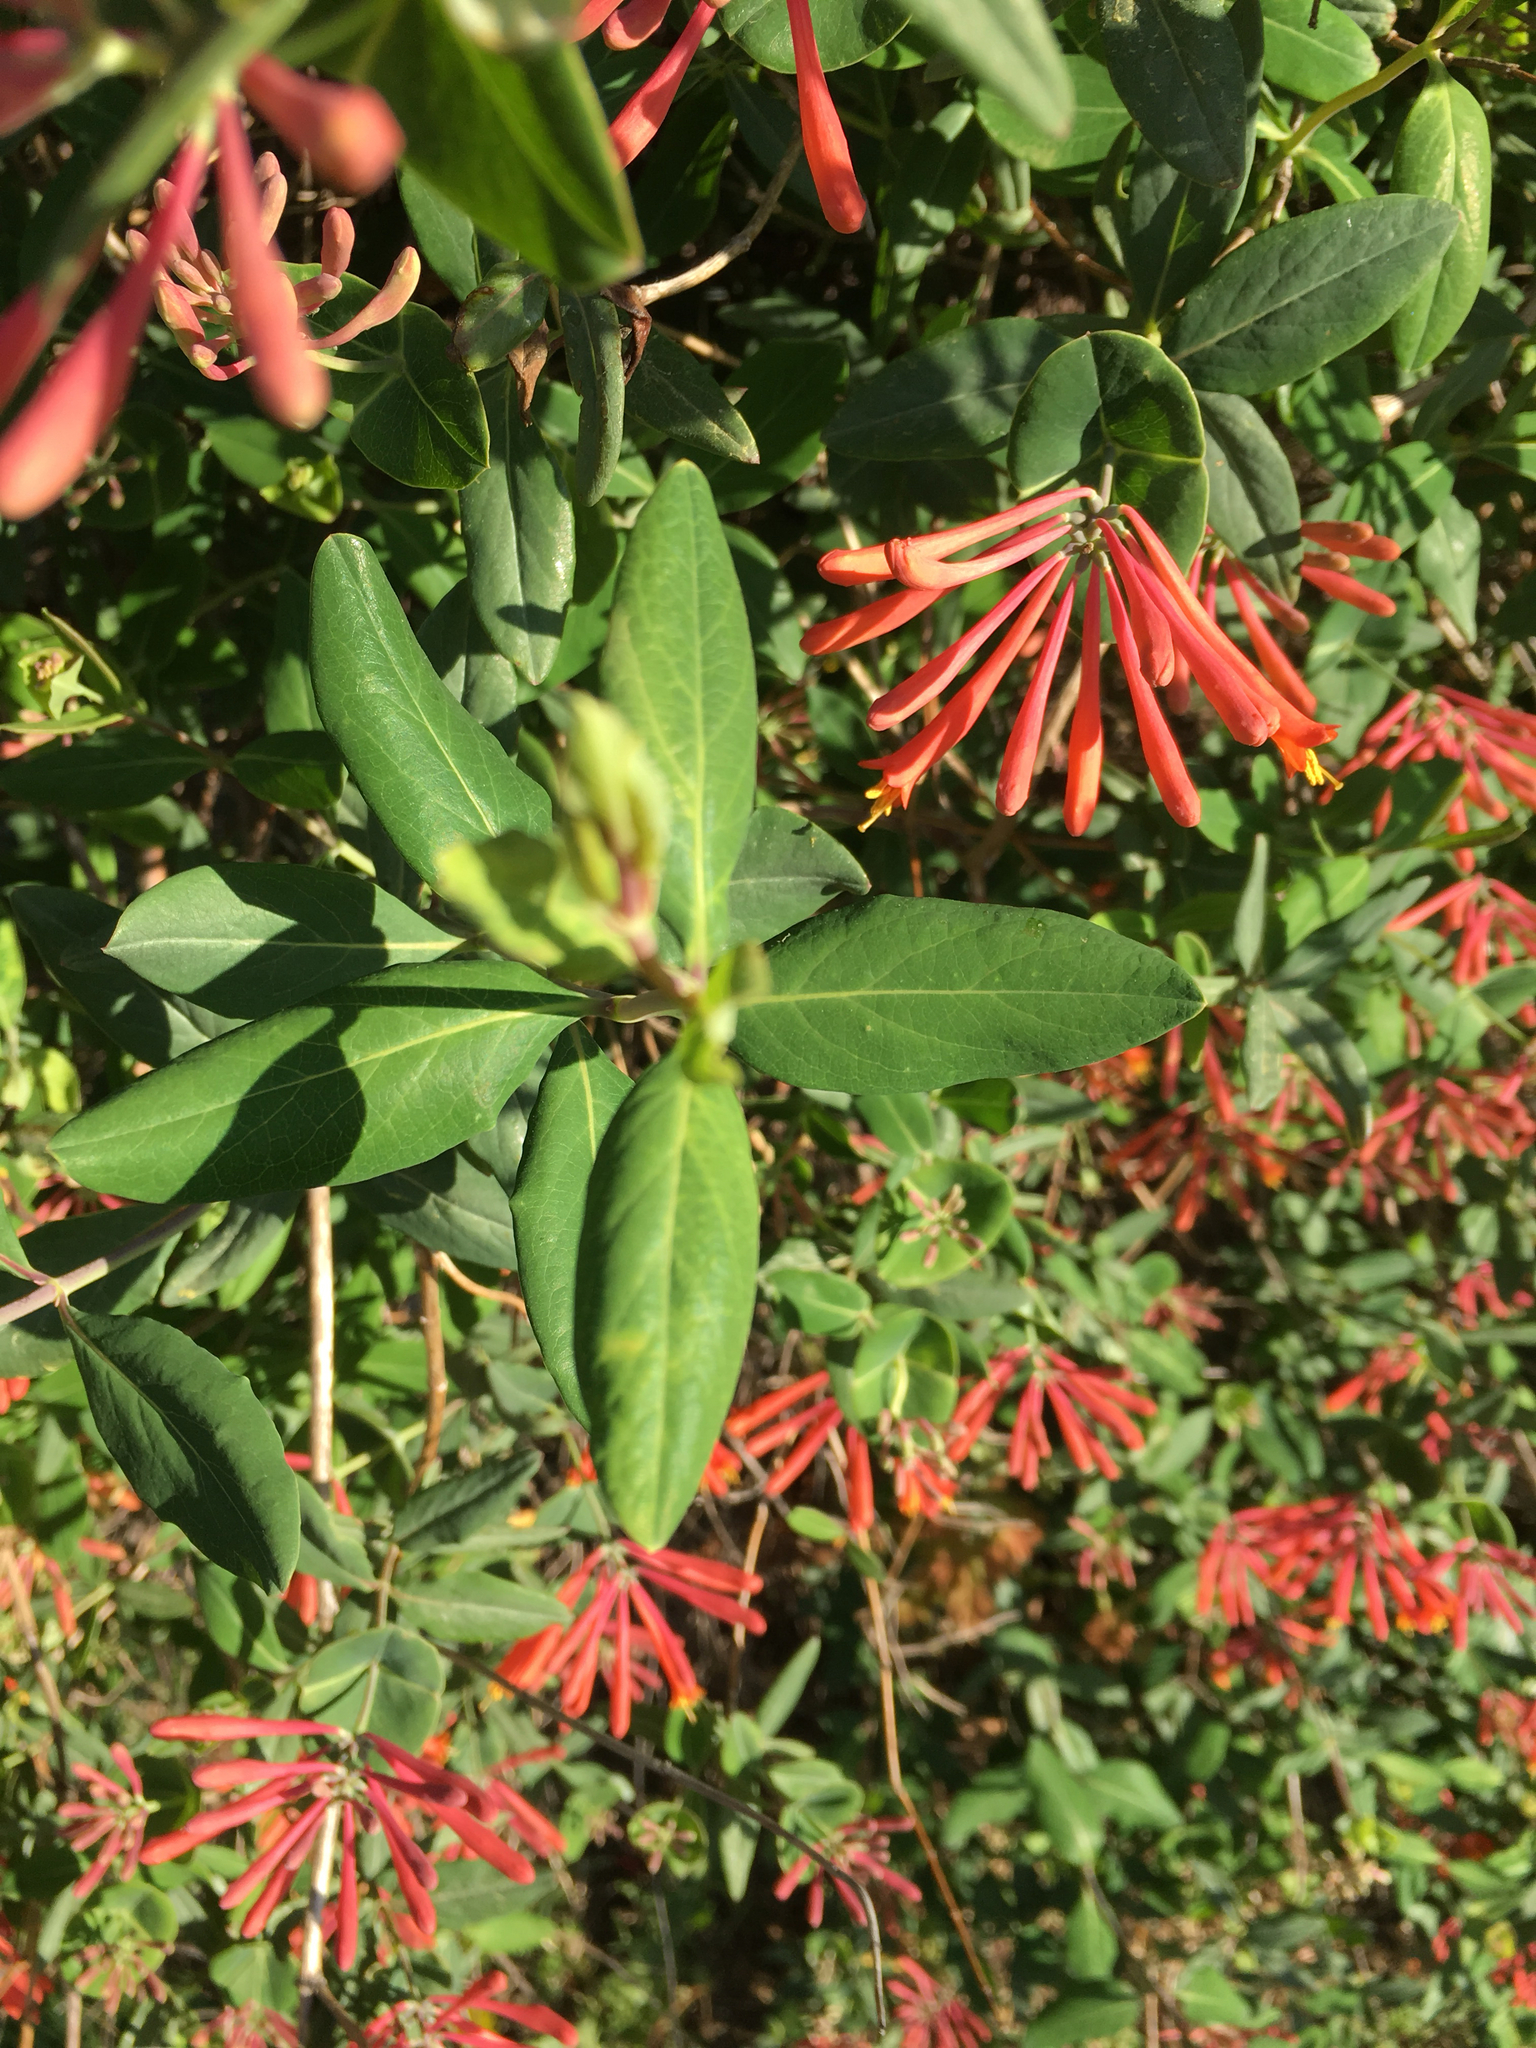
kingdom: Plantae
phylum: Tracheophyta
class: Magnoliopsida
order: Dipsacales
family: Caprifoliaceae
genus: Lonicera
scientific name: Lonicera sempervirens
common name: Coral honeysuckle
